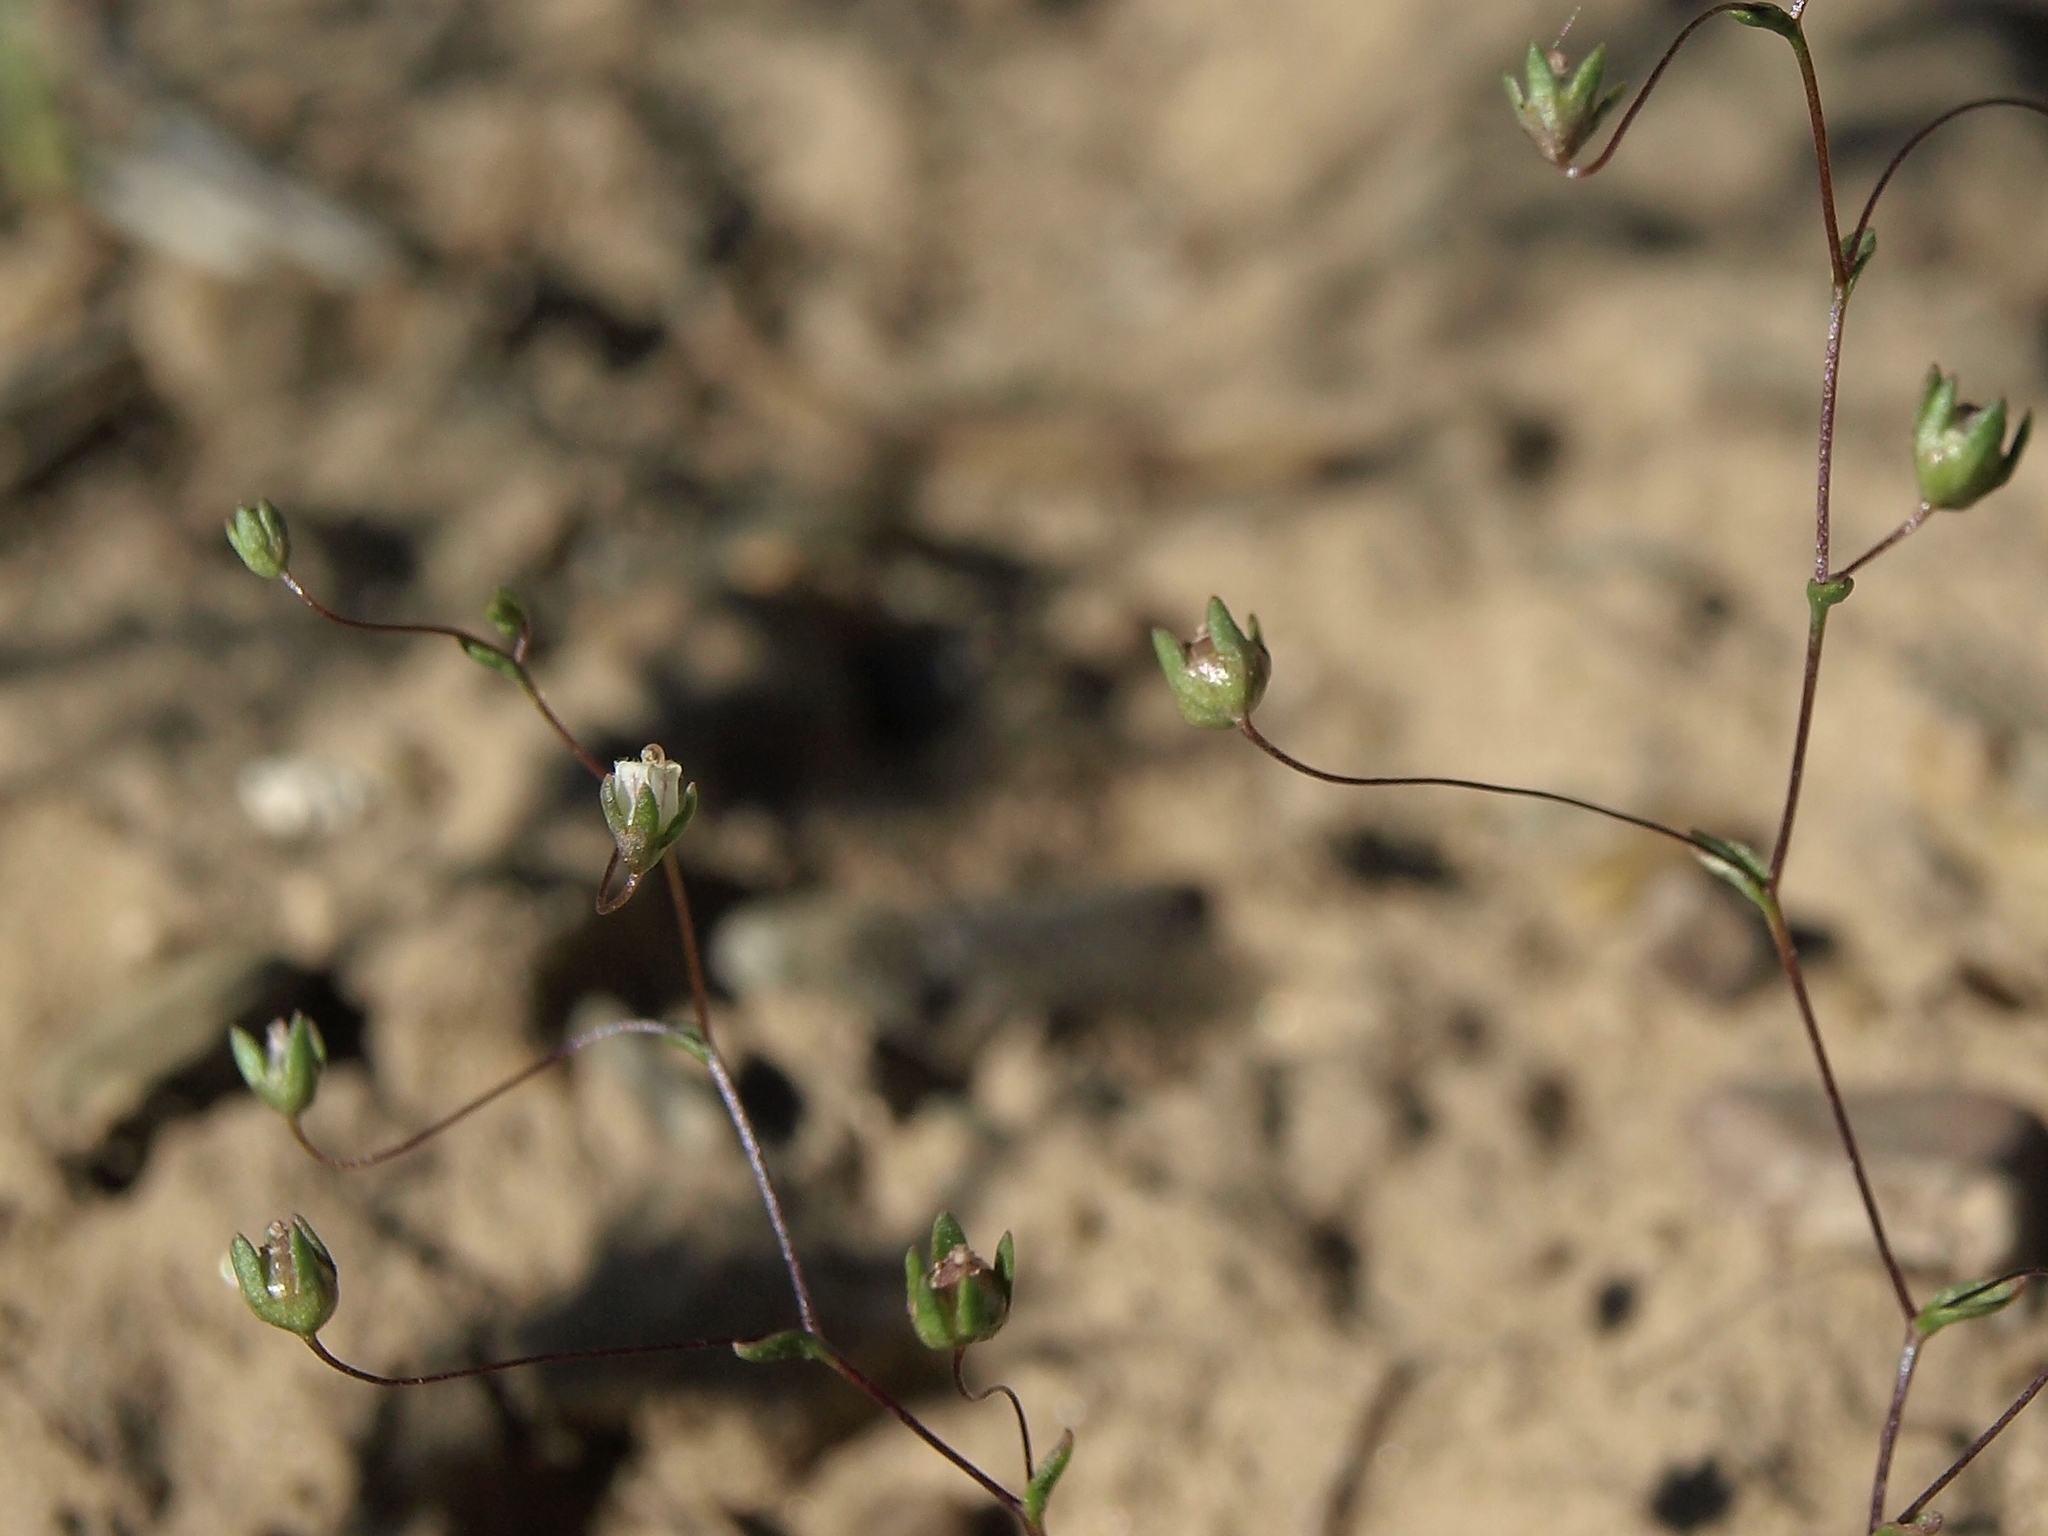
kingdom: Plantae
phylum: Tracheophyta
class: Magnoliopsida
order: Asterales
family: Campanulaceae
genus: Nemacladus
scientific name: Nemacladus inyoensis
